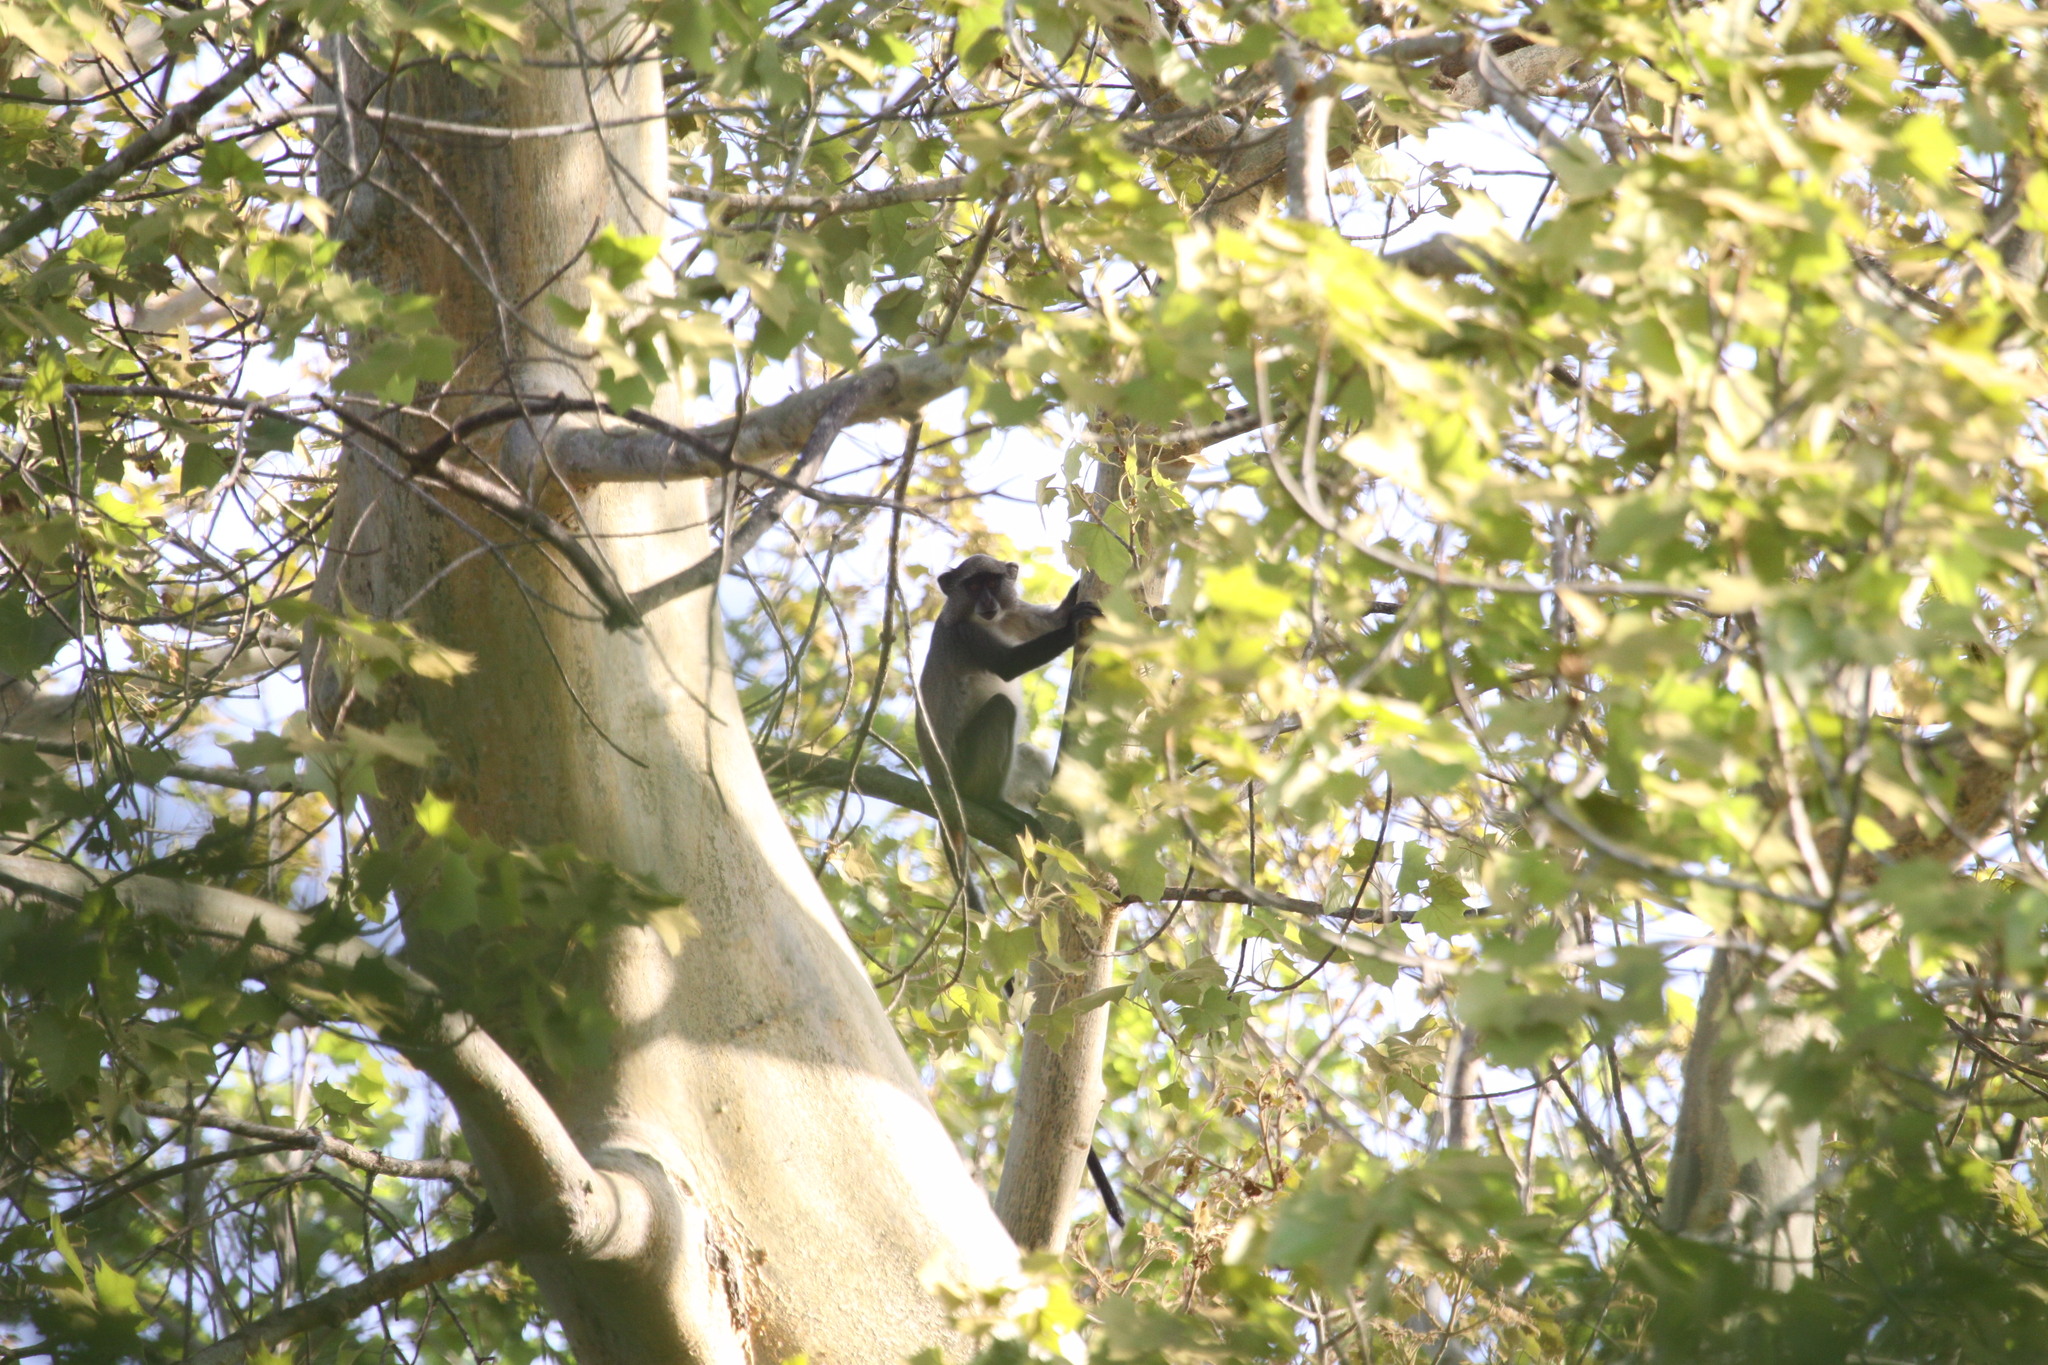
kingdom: Animalia
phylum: Chordata
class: Mammalia
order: Primates
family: Cercopithecidae
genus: Cercopithecus
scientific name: Cercopithecus mitis
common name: Blue monkey
